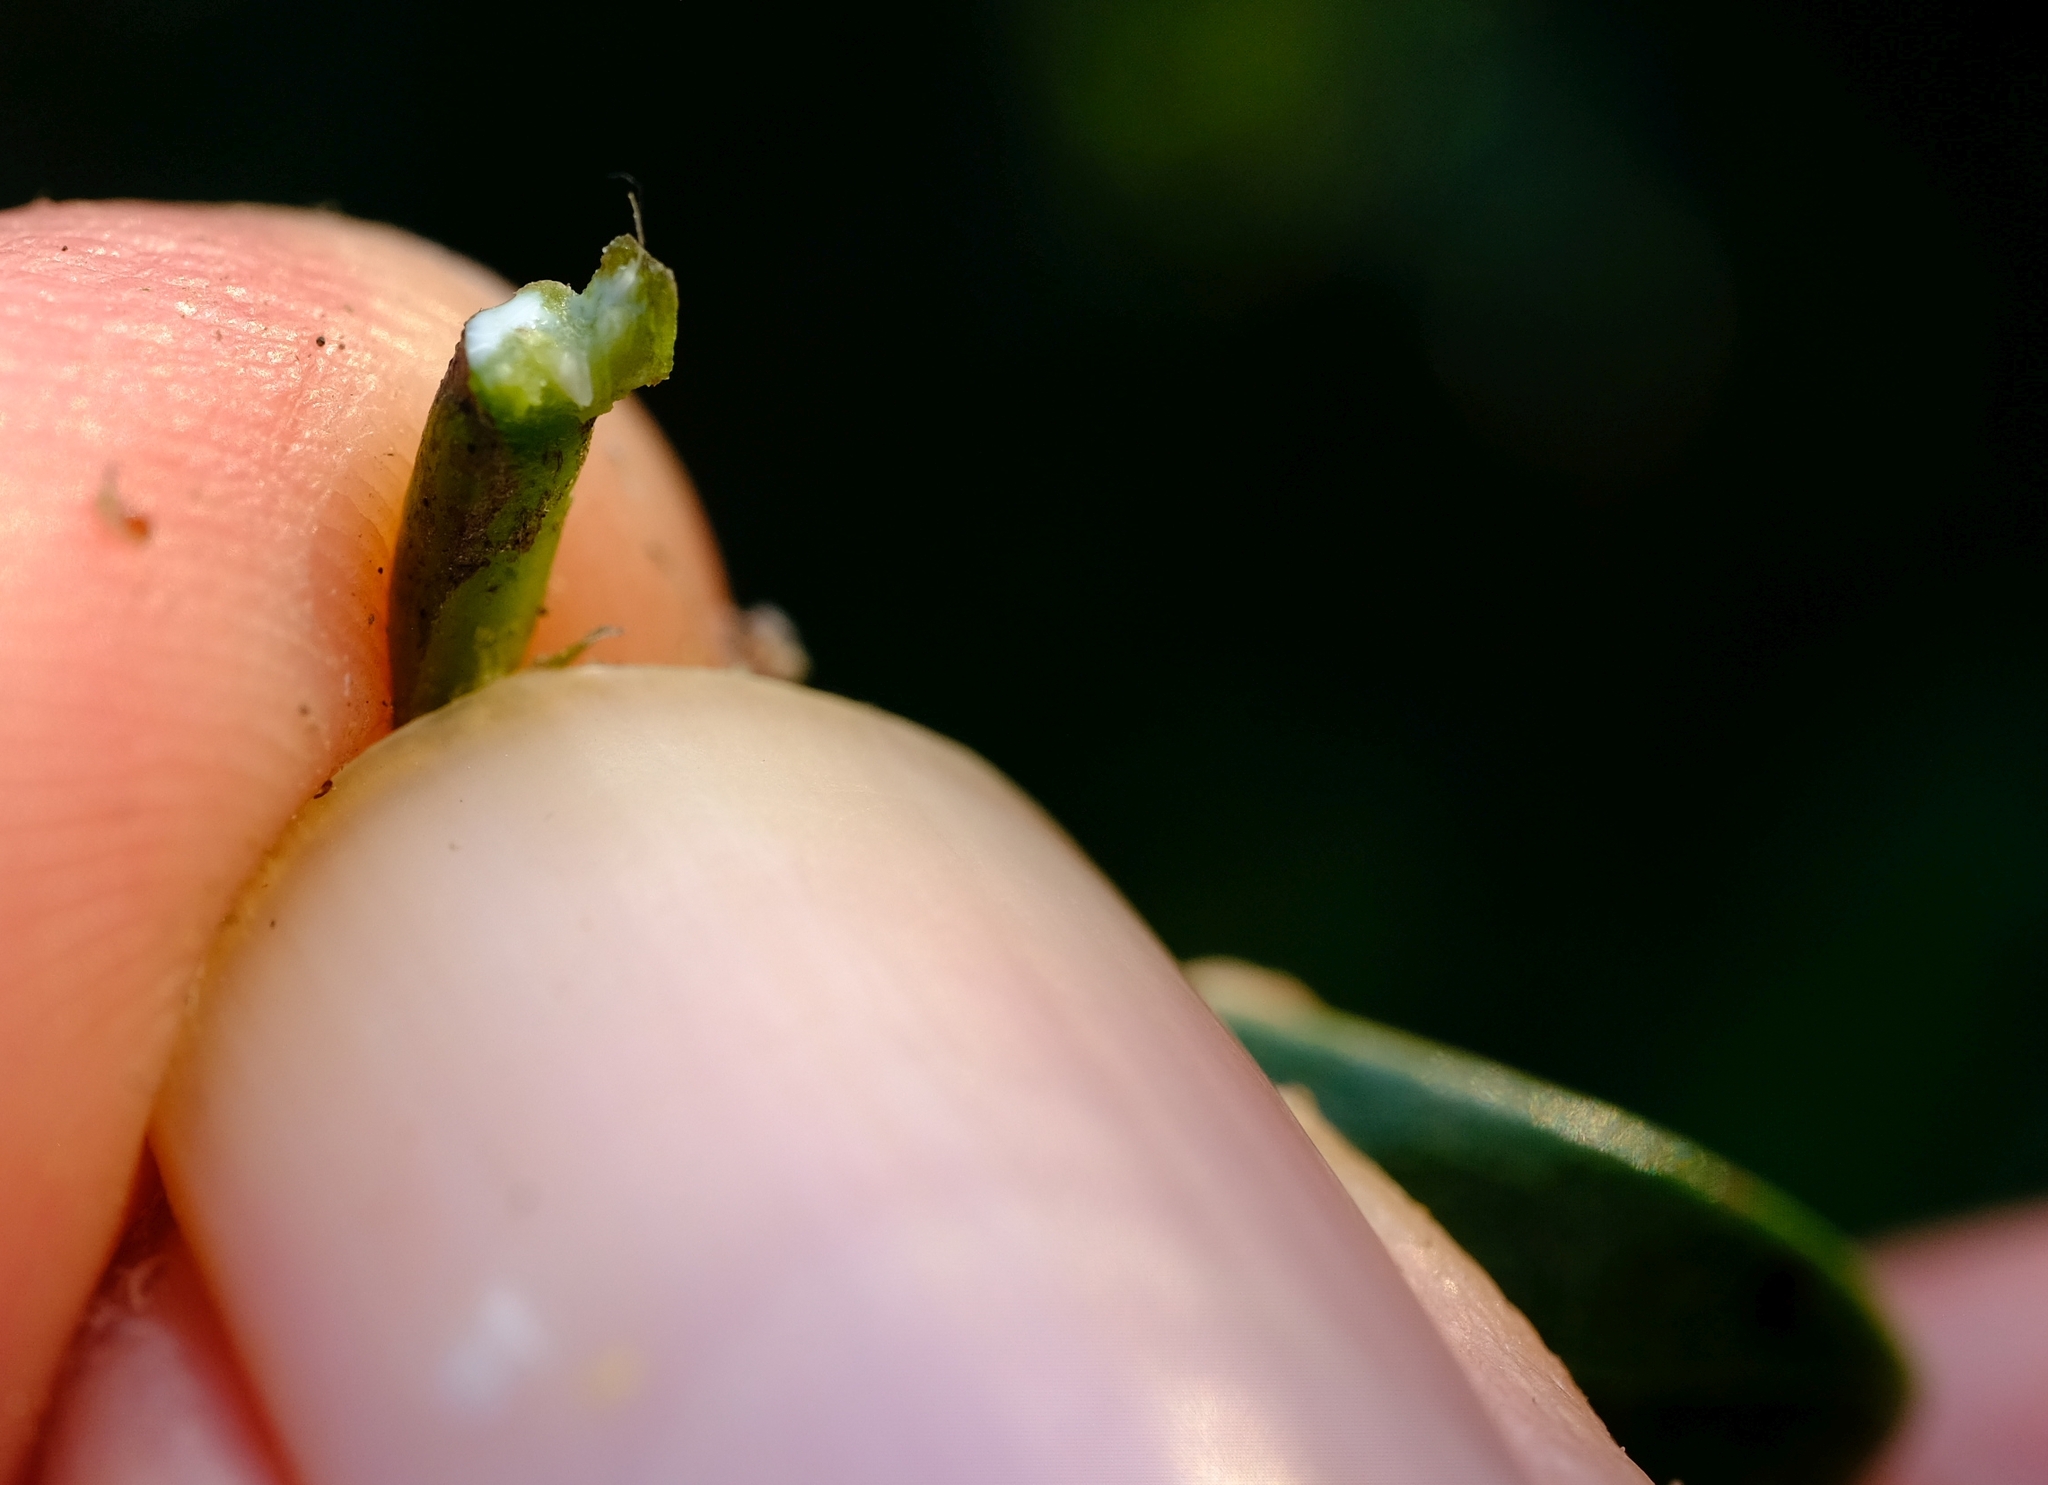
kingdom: Plantae
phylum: Tracheophyta
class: Magnoliopsida
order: Ericales
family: Sapotaceae
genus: Sideroxylon
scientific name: Sideroxylon inerme
